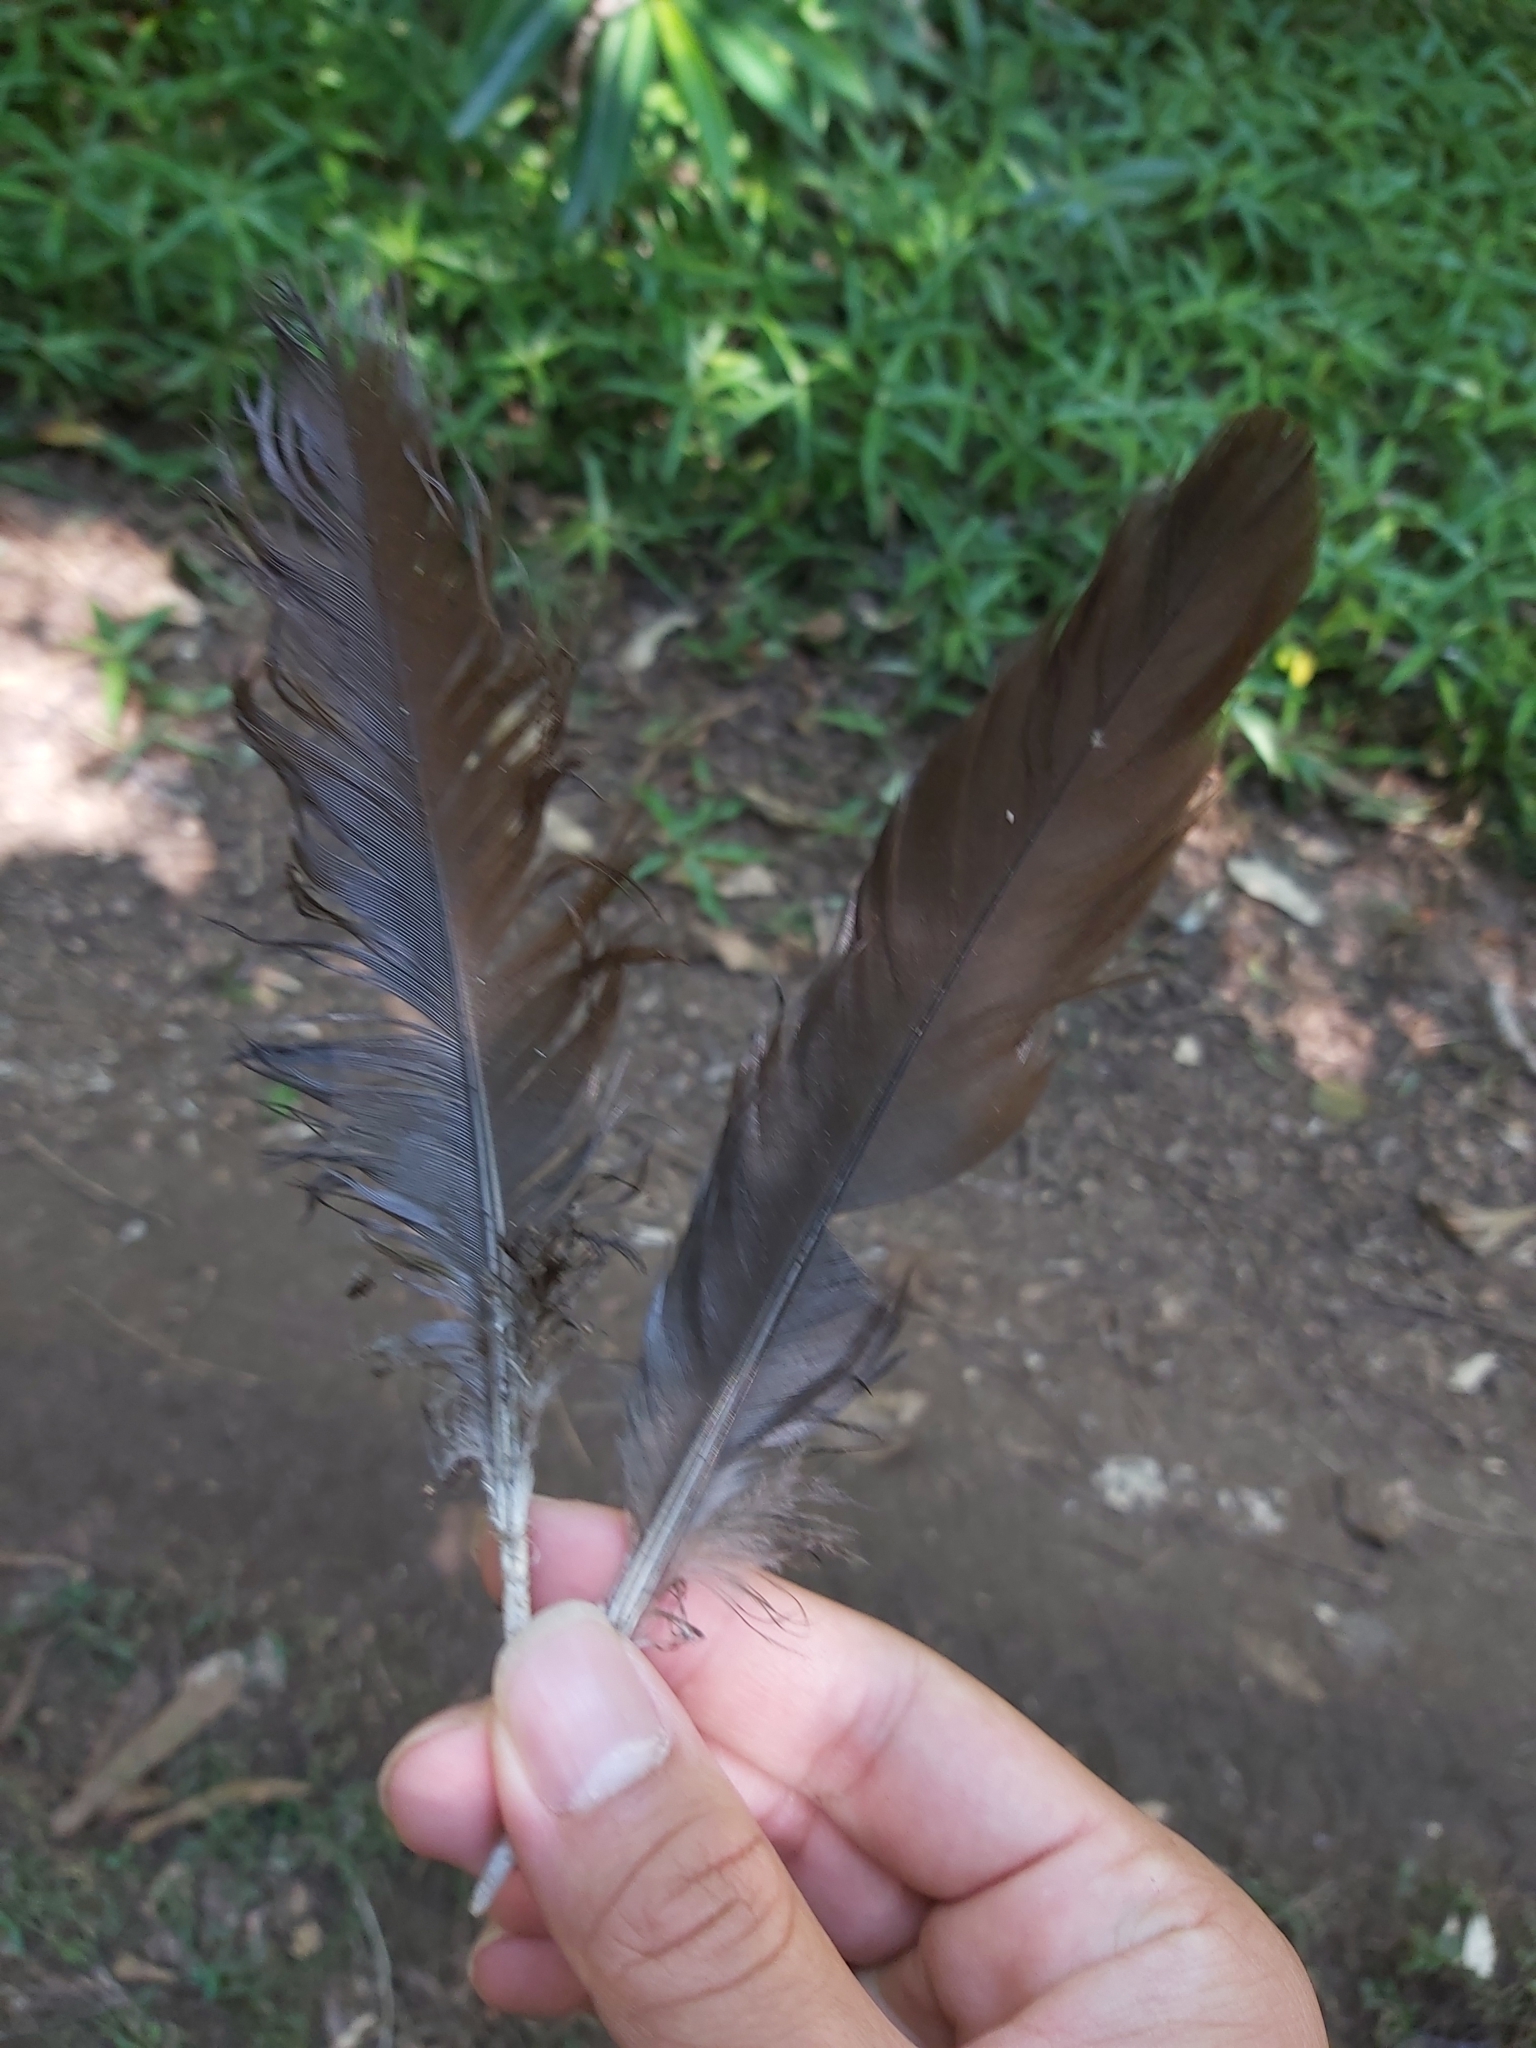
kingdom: Animalia
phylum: Chordata
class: Aves
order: Galliformes
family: Megapodiidae
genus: Megapodius
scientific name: Megapodius reinwardt
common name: Orange-footed scrubfowl
